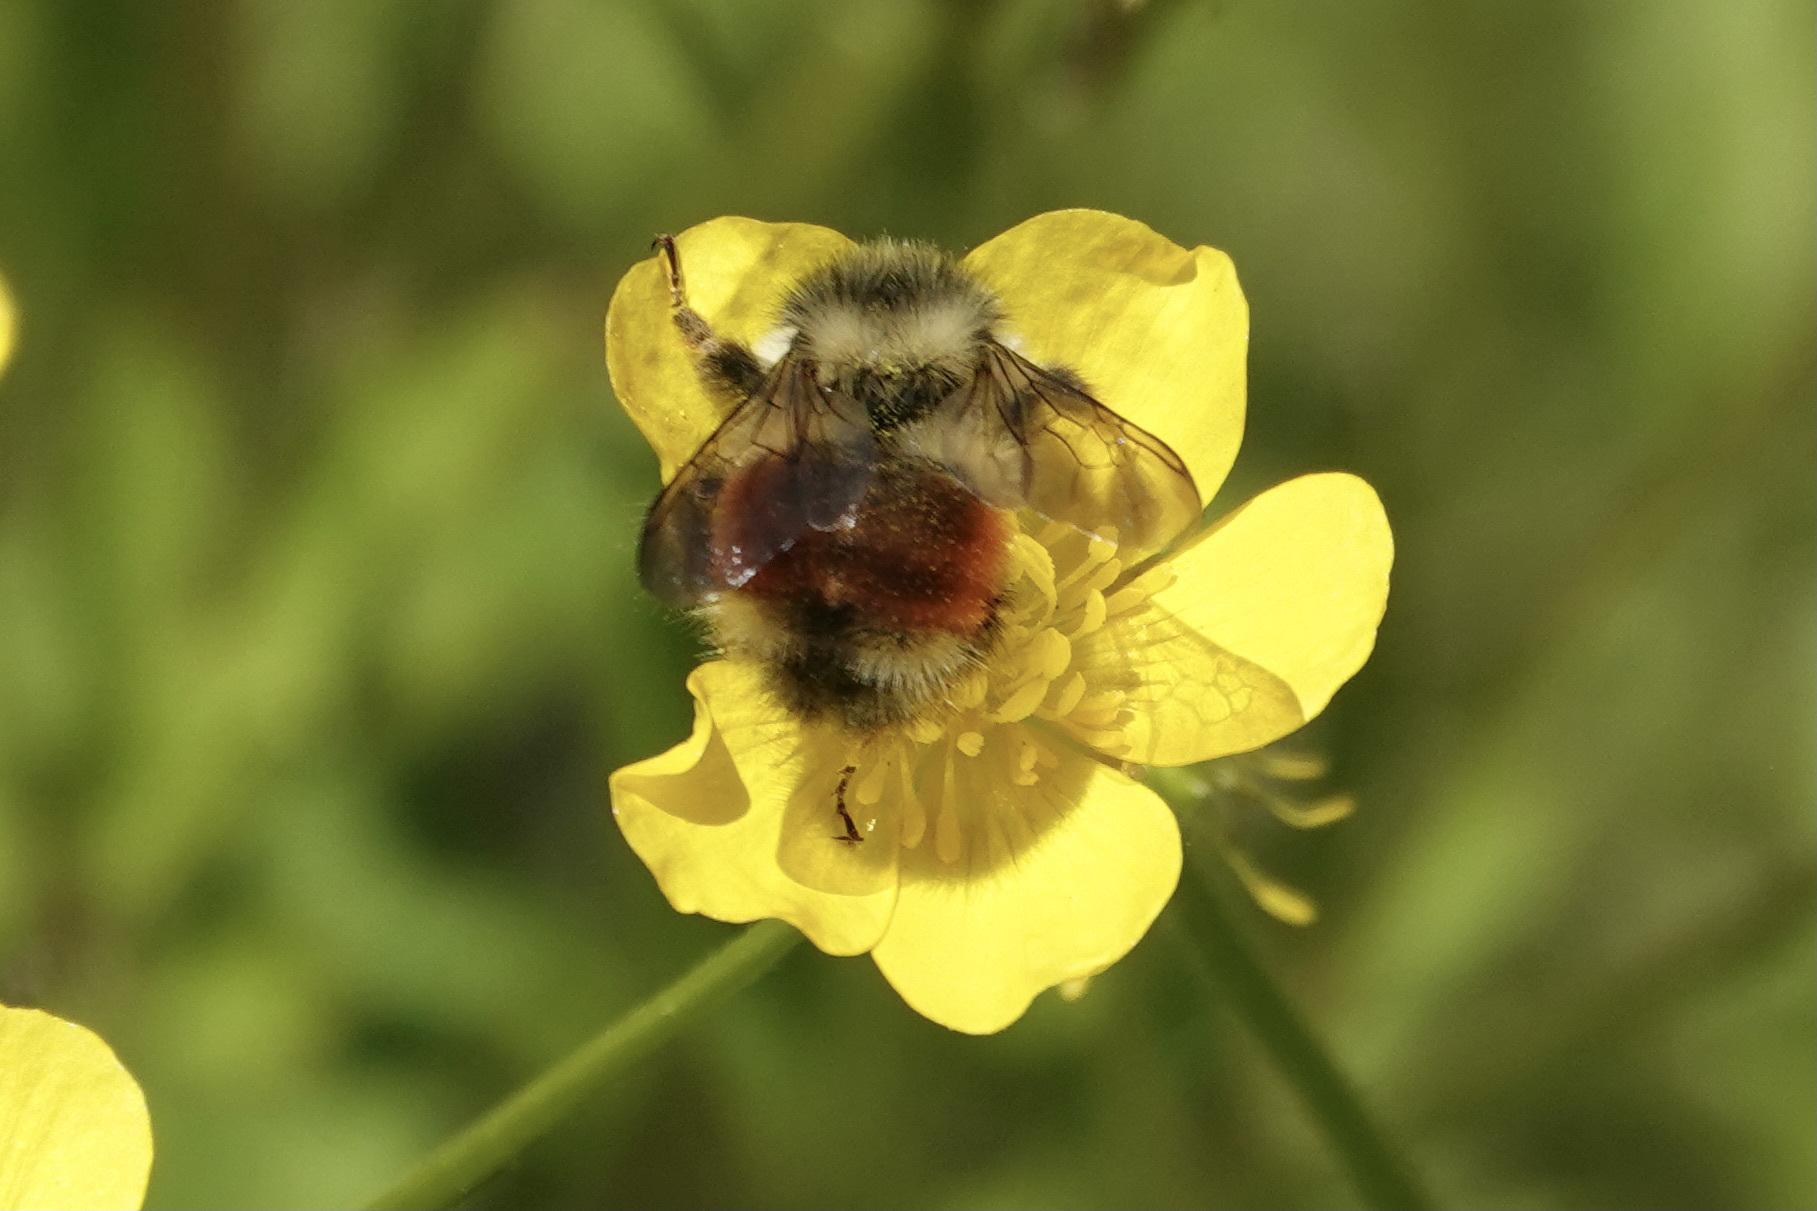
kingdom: Animalia
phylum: Arthropoda
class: Insecta
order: Hymenoptera
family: Apidae
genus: Bombus
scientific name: Bombus melanopygus
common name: Black tail bumble bee
